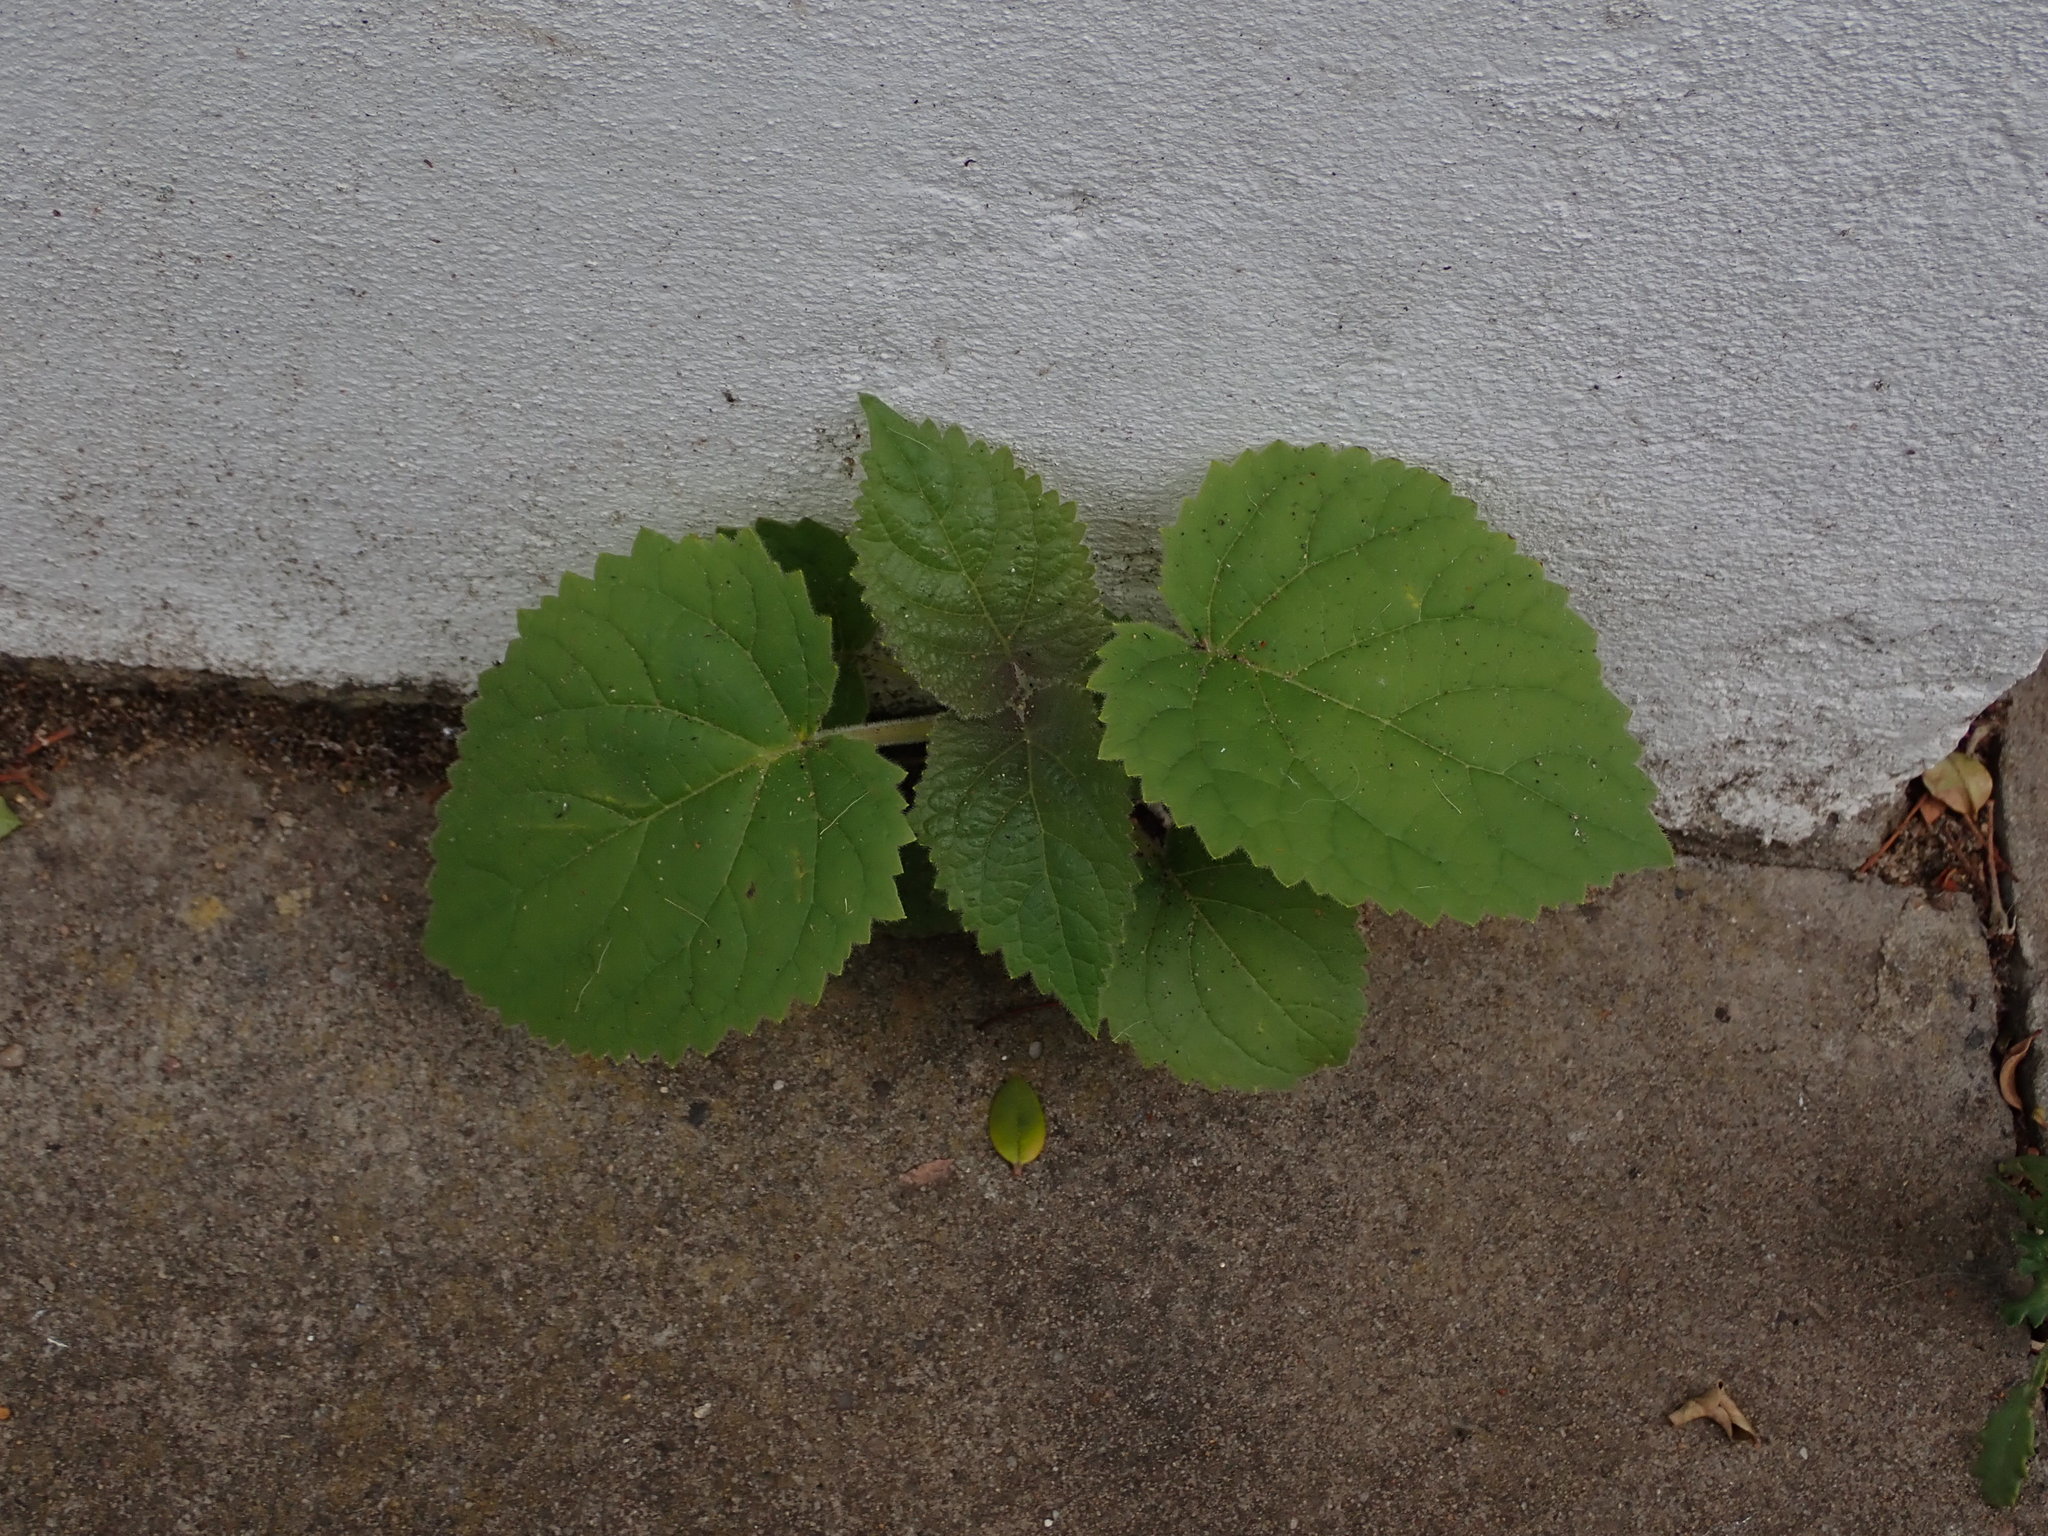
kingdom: Plantae
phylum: Tracheophyta
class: Magnoliopsida
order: Lamiales
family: Paulowniaceae
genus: Paulownia
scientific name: Paulownia tomentosa
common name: Foxglove-tree
